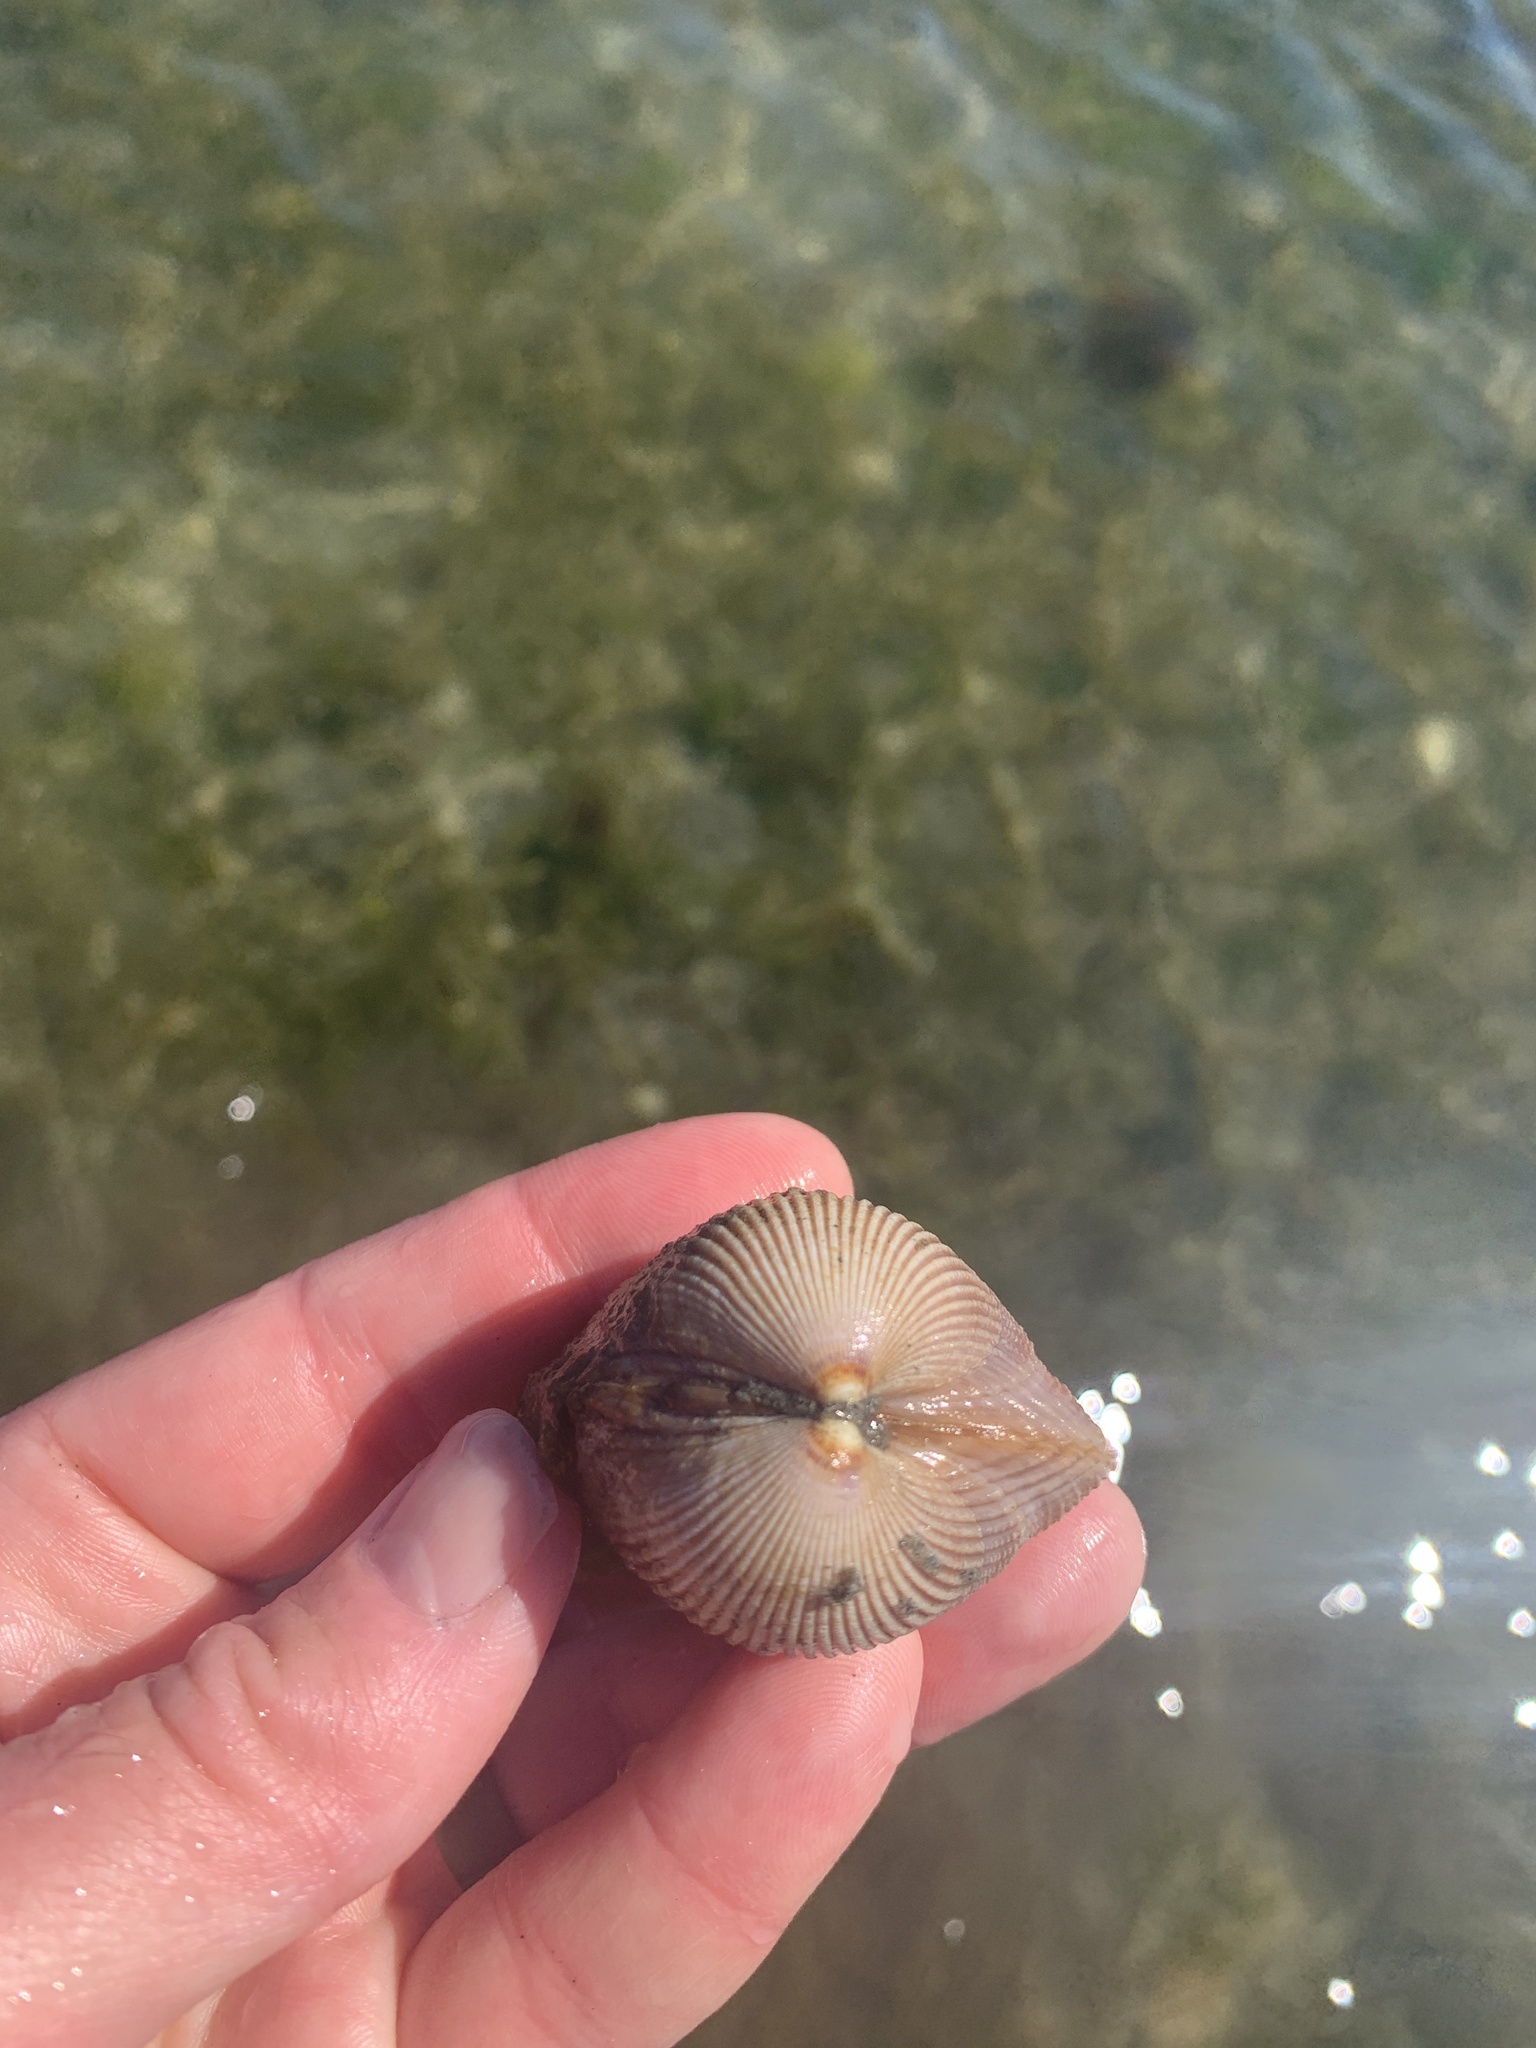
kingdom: Animalia
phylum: Mollusca
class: Bivalvia
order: Cardiida
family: Cardiidae
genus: Clinocardium
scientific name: Clinocardium nuttallii
